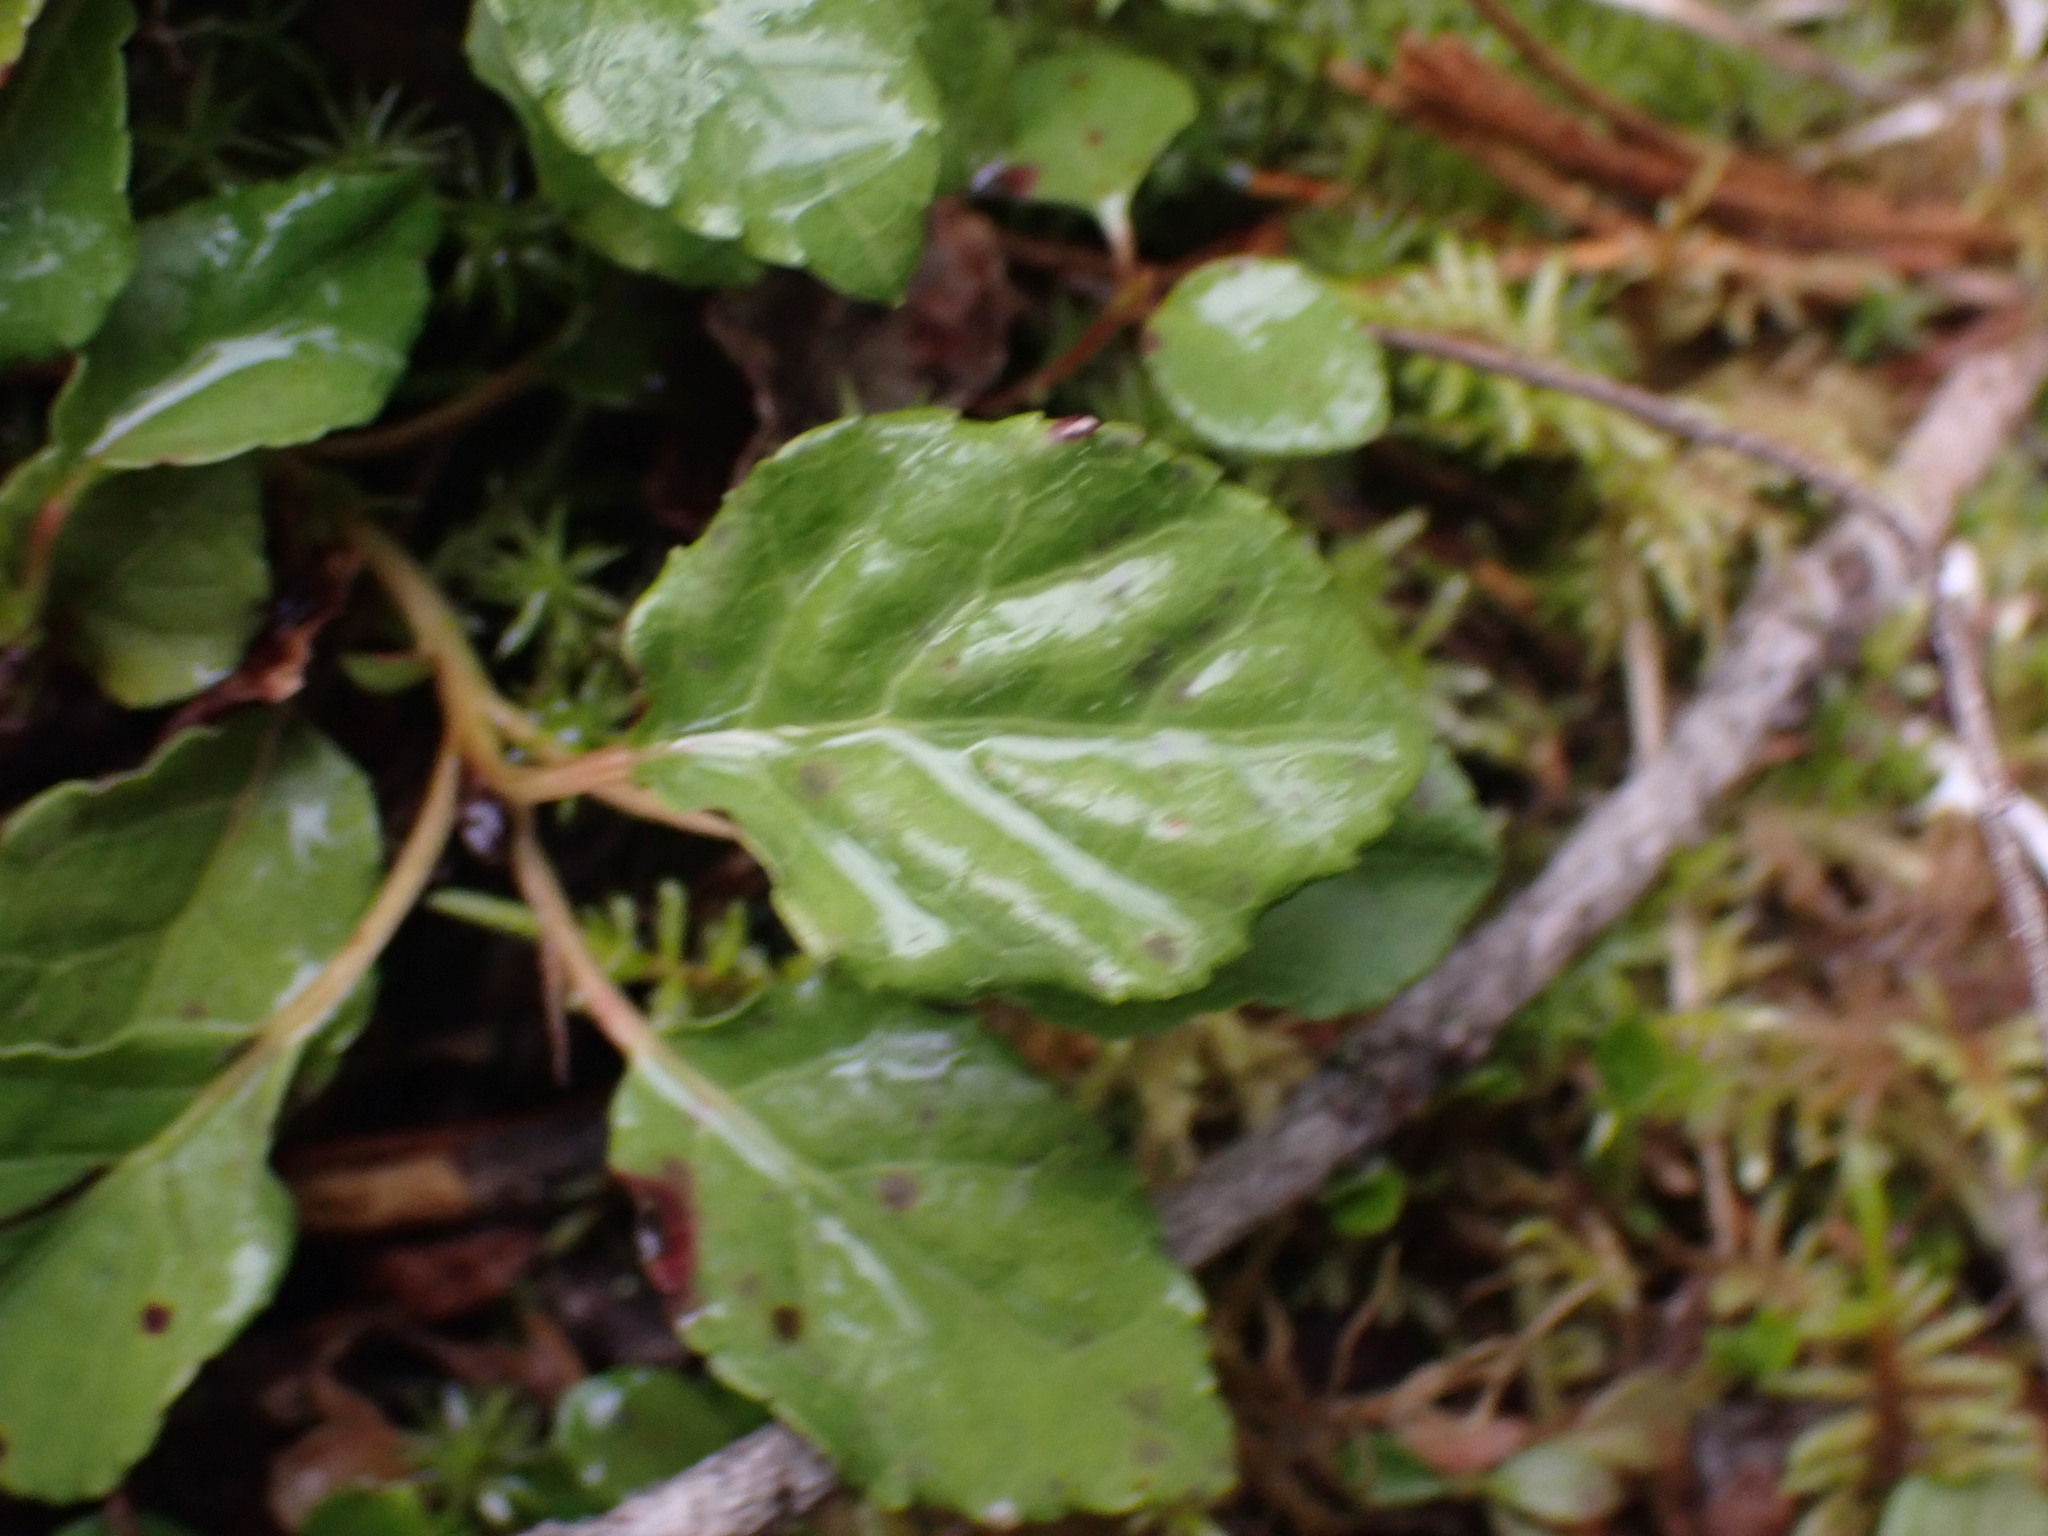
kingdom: Plantae
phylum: Tracheophyta
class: Magnoliopsida
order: Ericales
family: Ericaceae
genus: Orthilia
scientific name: Orthilia secunda
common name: One-sided orthilia
